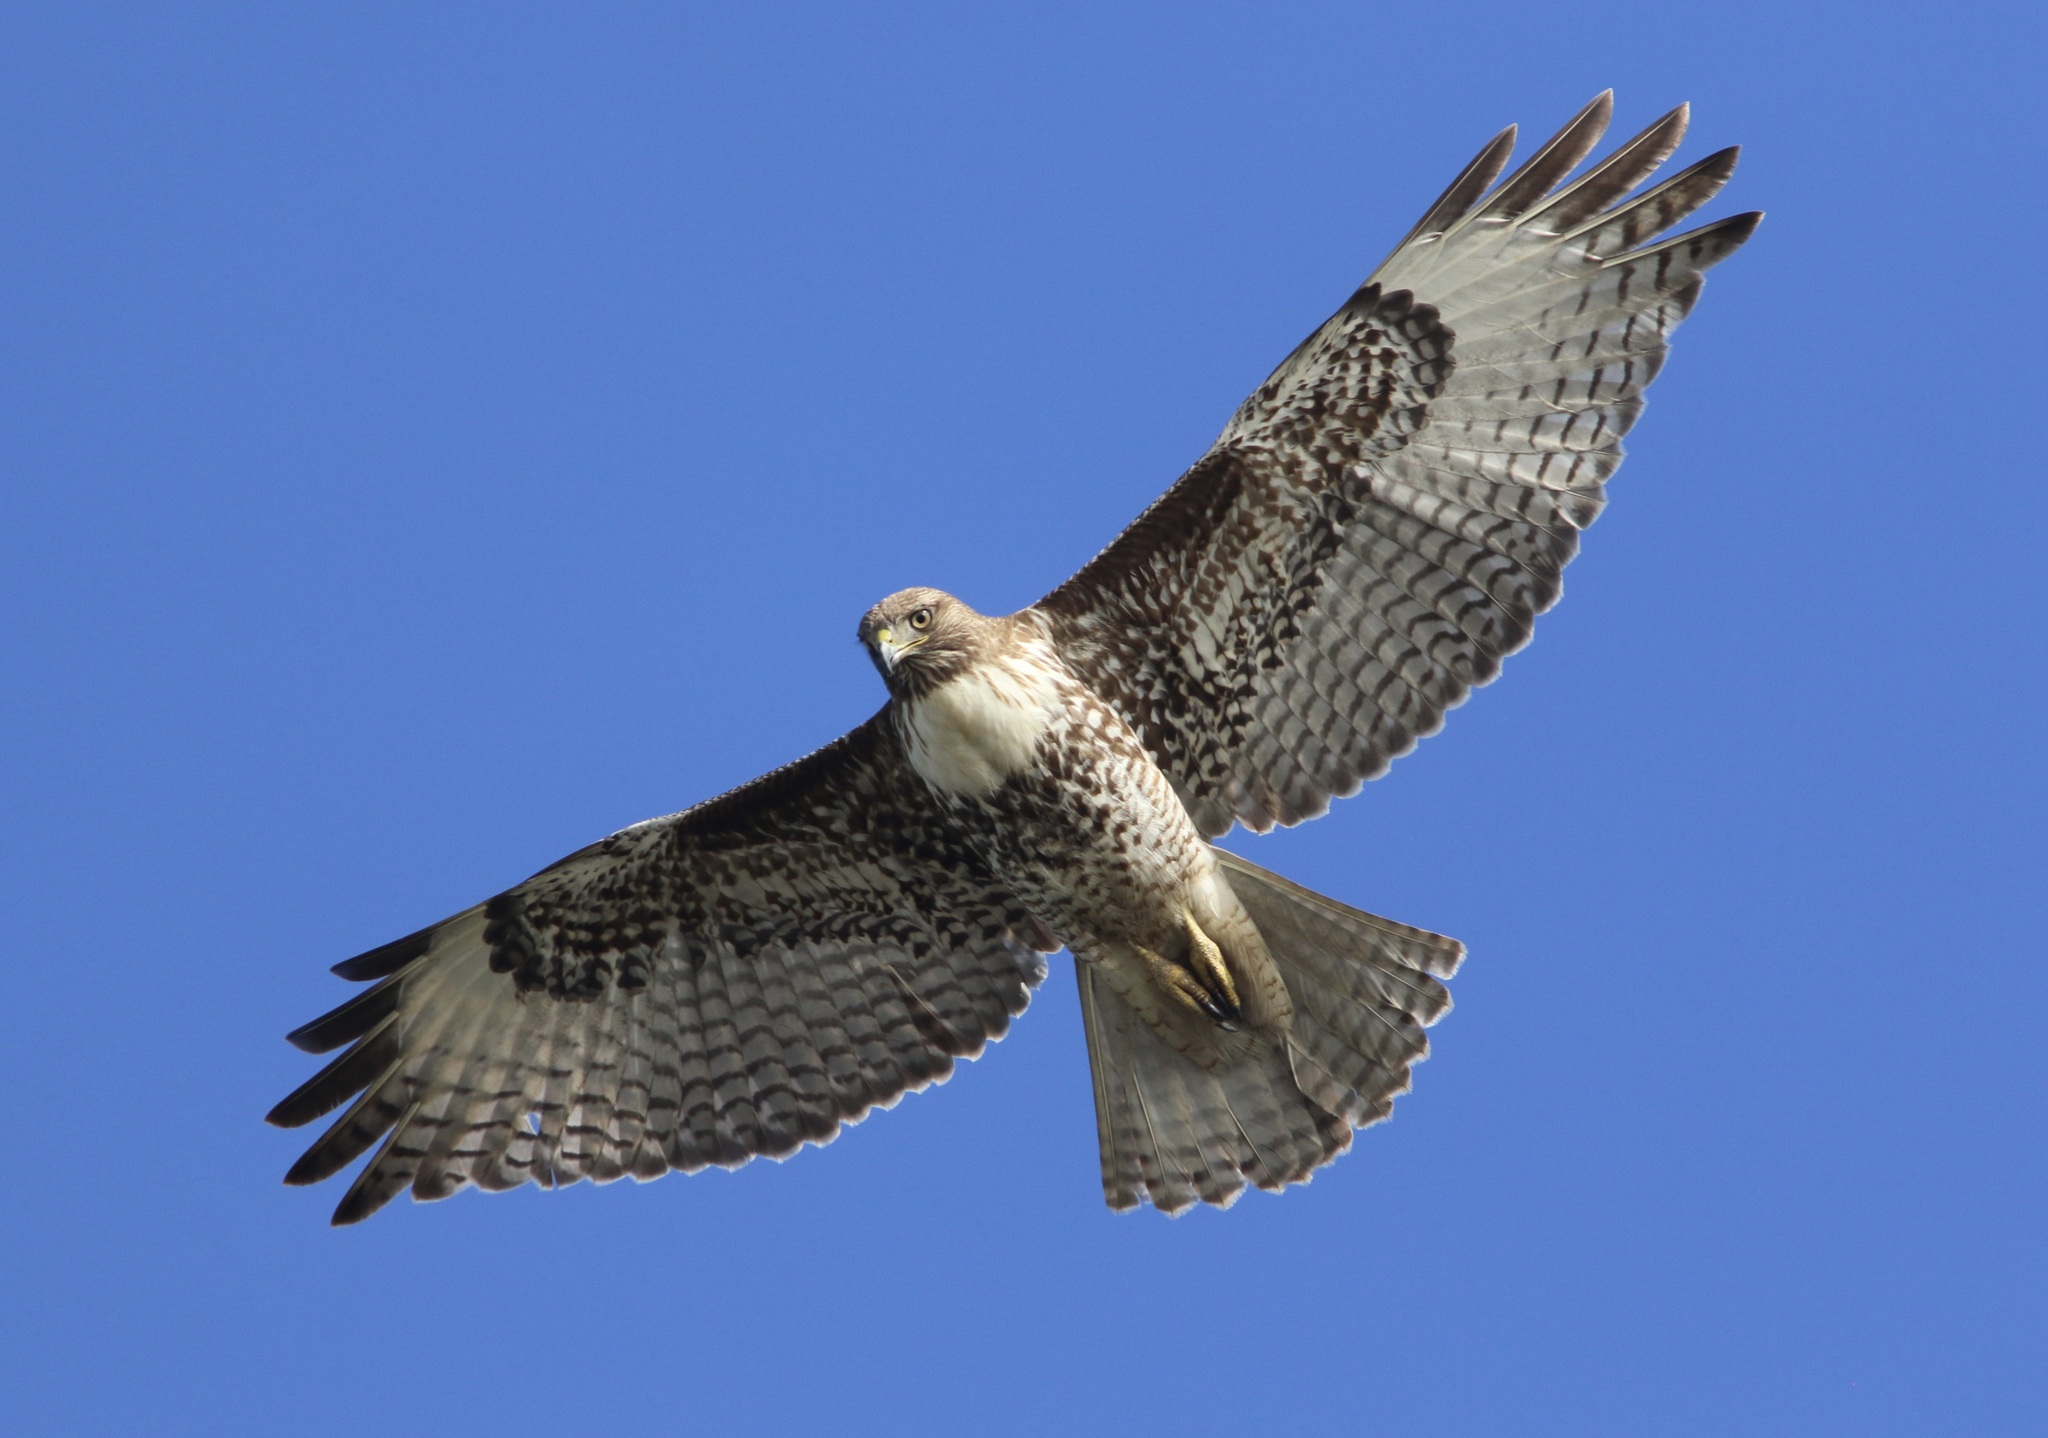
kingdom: Animalia
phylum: Chordata
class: Aves
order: Accipitriformes
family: Accipitridae
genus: Buteo
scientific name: Buteo jamaicensis
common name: Red-tailed hawk
